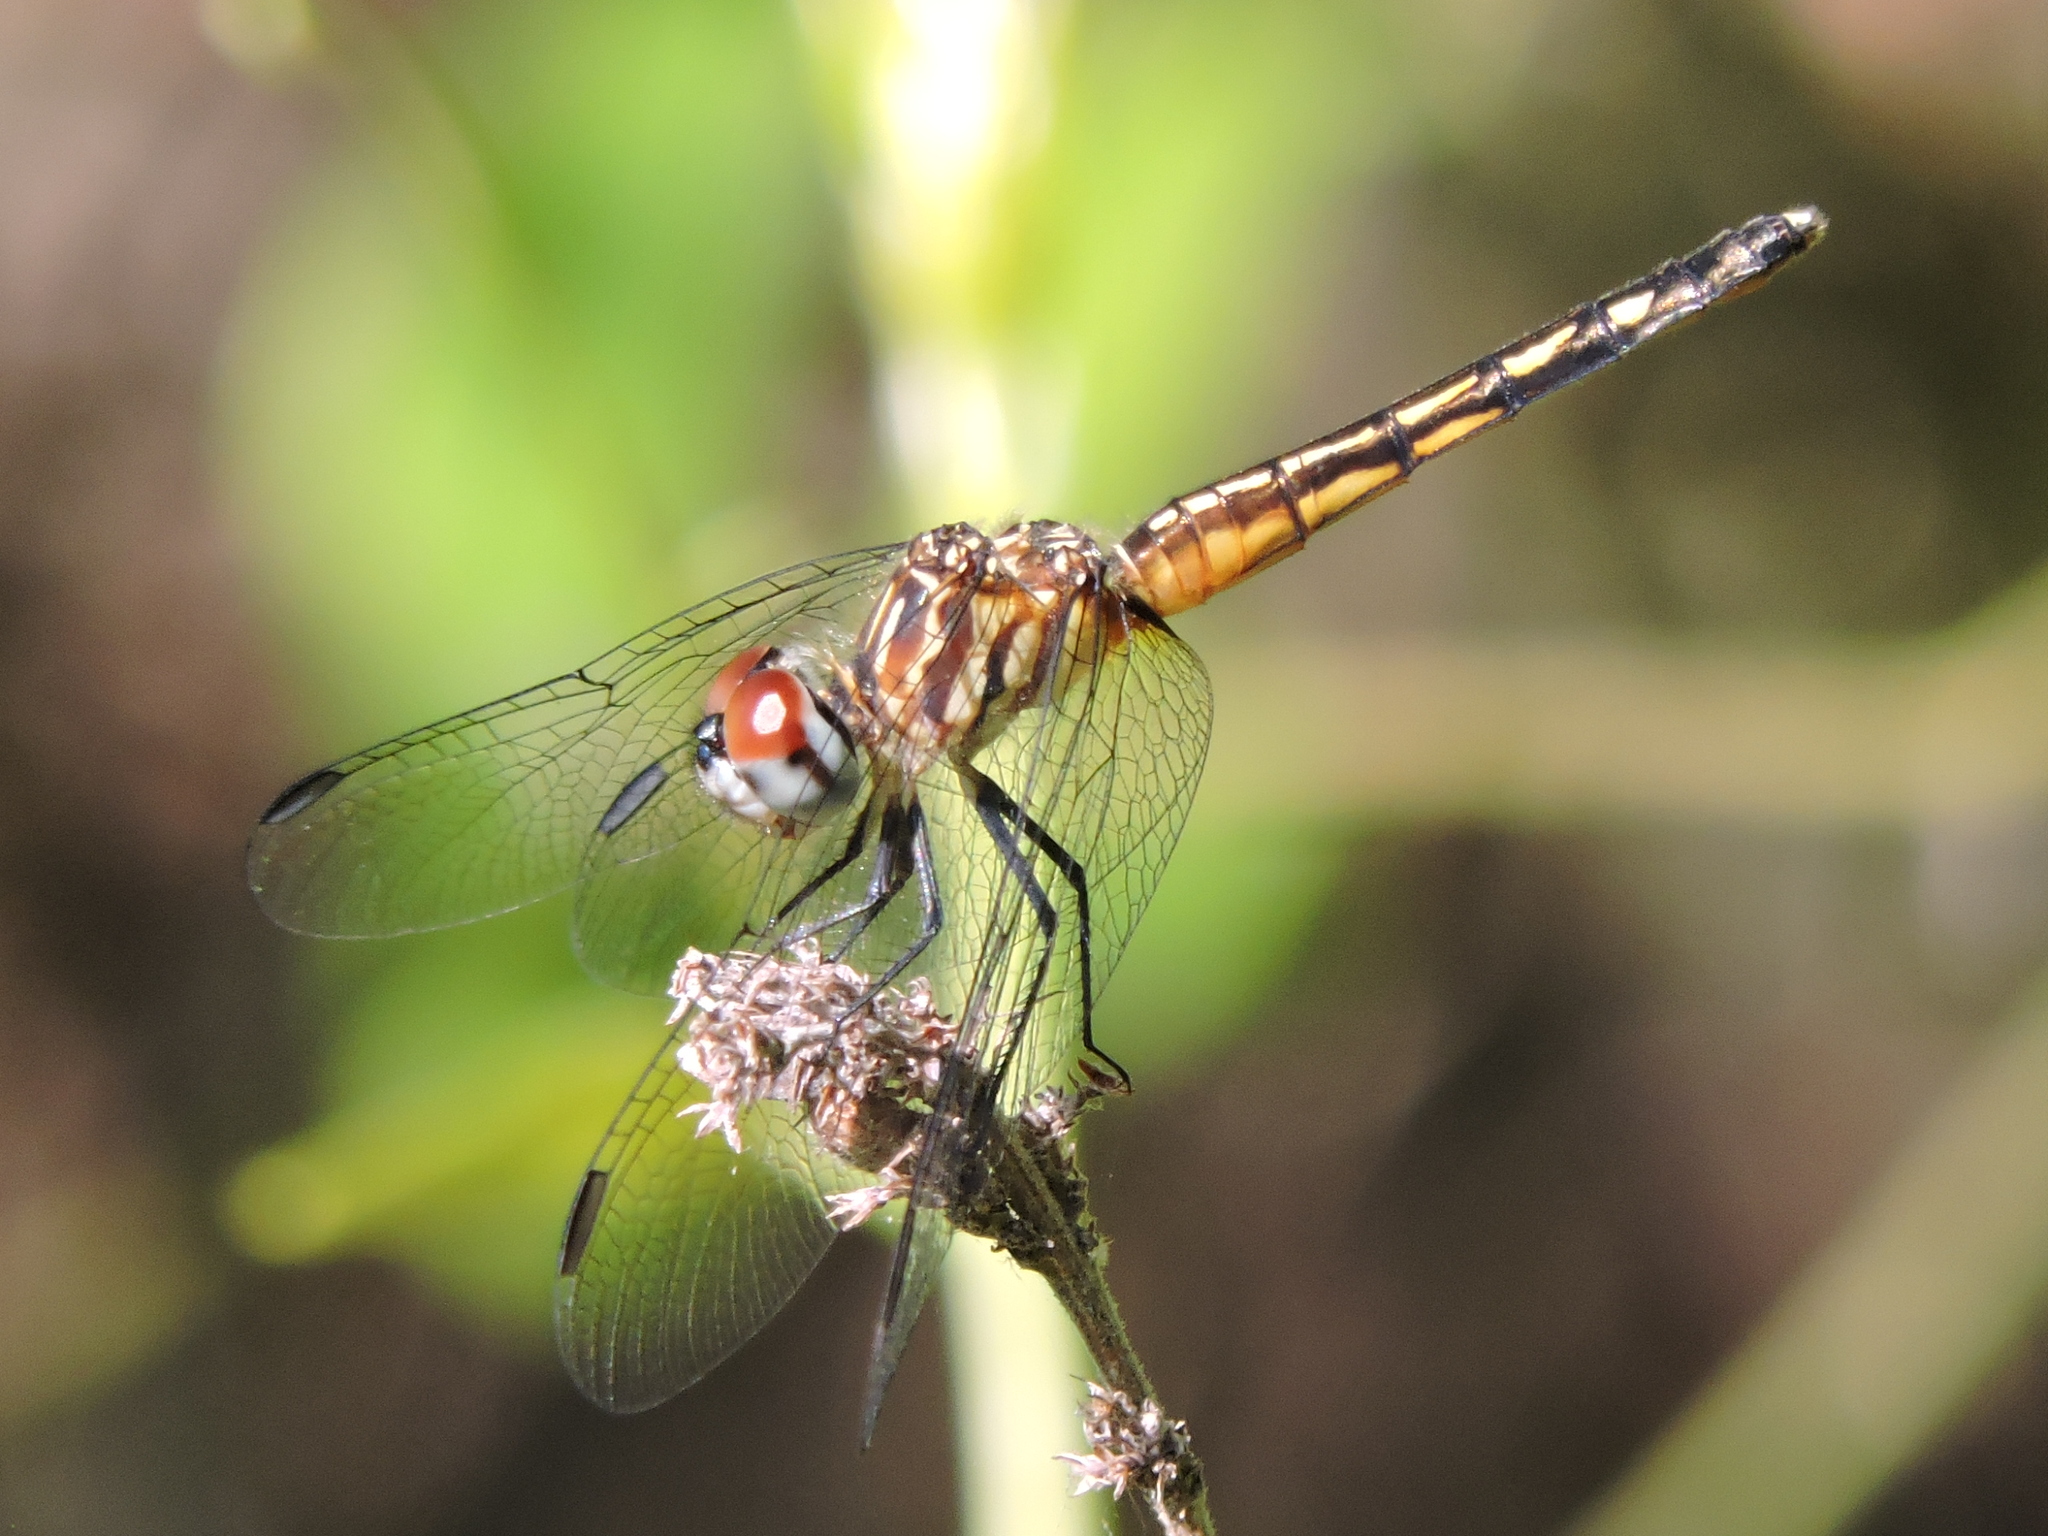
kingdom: Animalia
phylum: Arthropoda
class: Insecta
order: Odonata
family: Libellulidae
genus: Pachydiplax
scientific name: Pachydiplax longipennis
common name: Blue dasher
